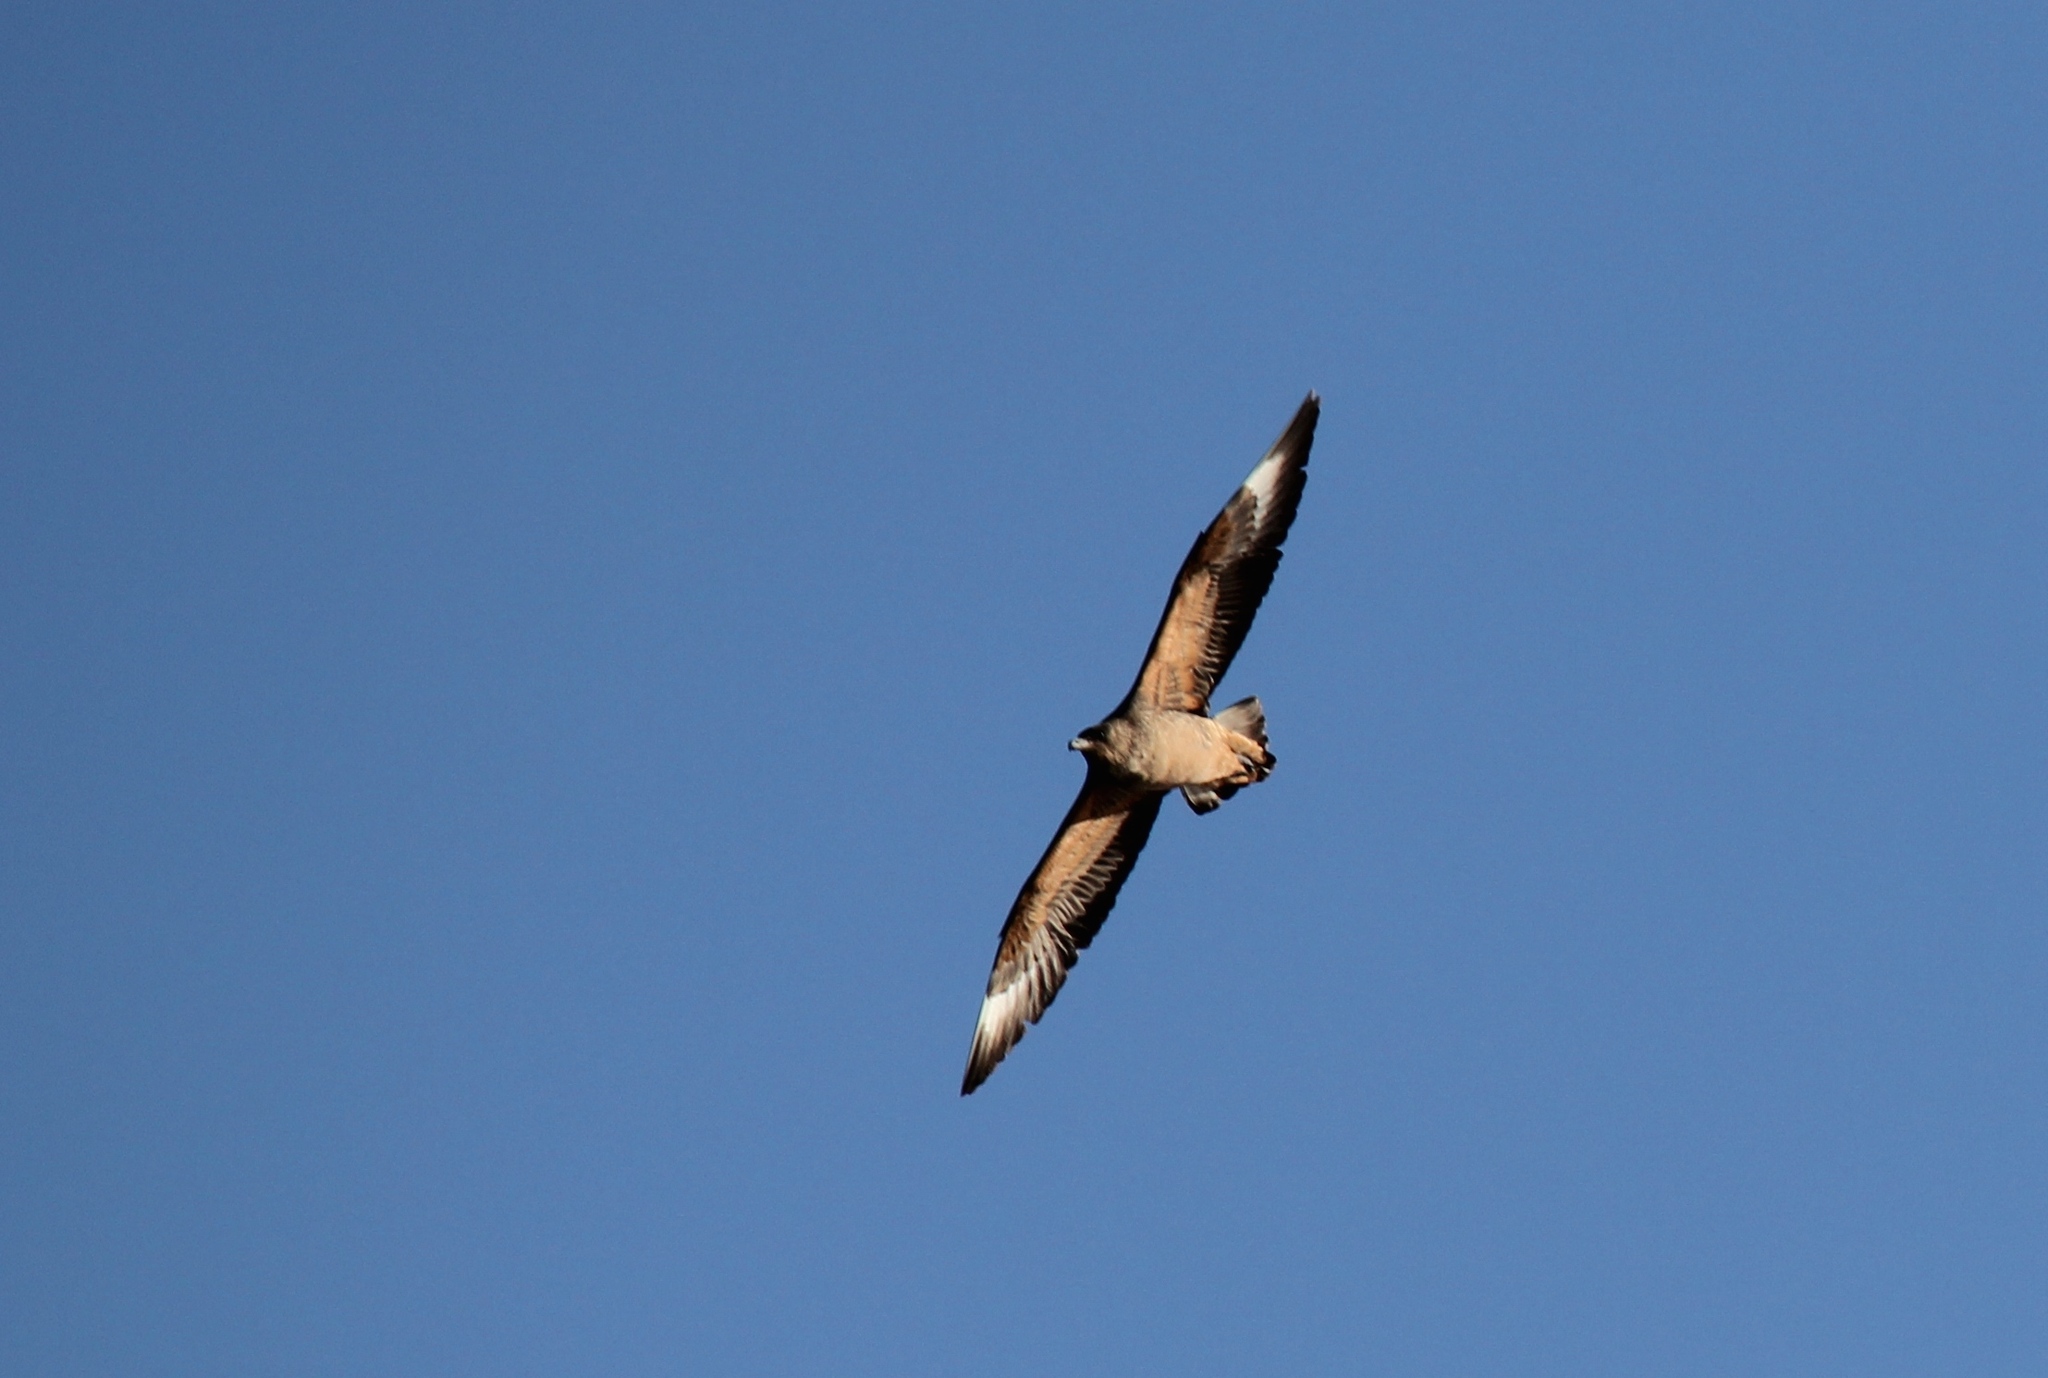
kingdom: Animalia
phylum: Chordata
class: Aves
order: Charadriiformes
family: Stercorariidae
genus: Stercorarius
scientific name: Stercorarius chilensis
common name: Chilean skua
